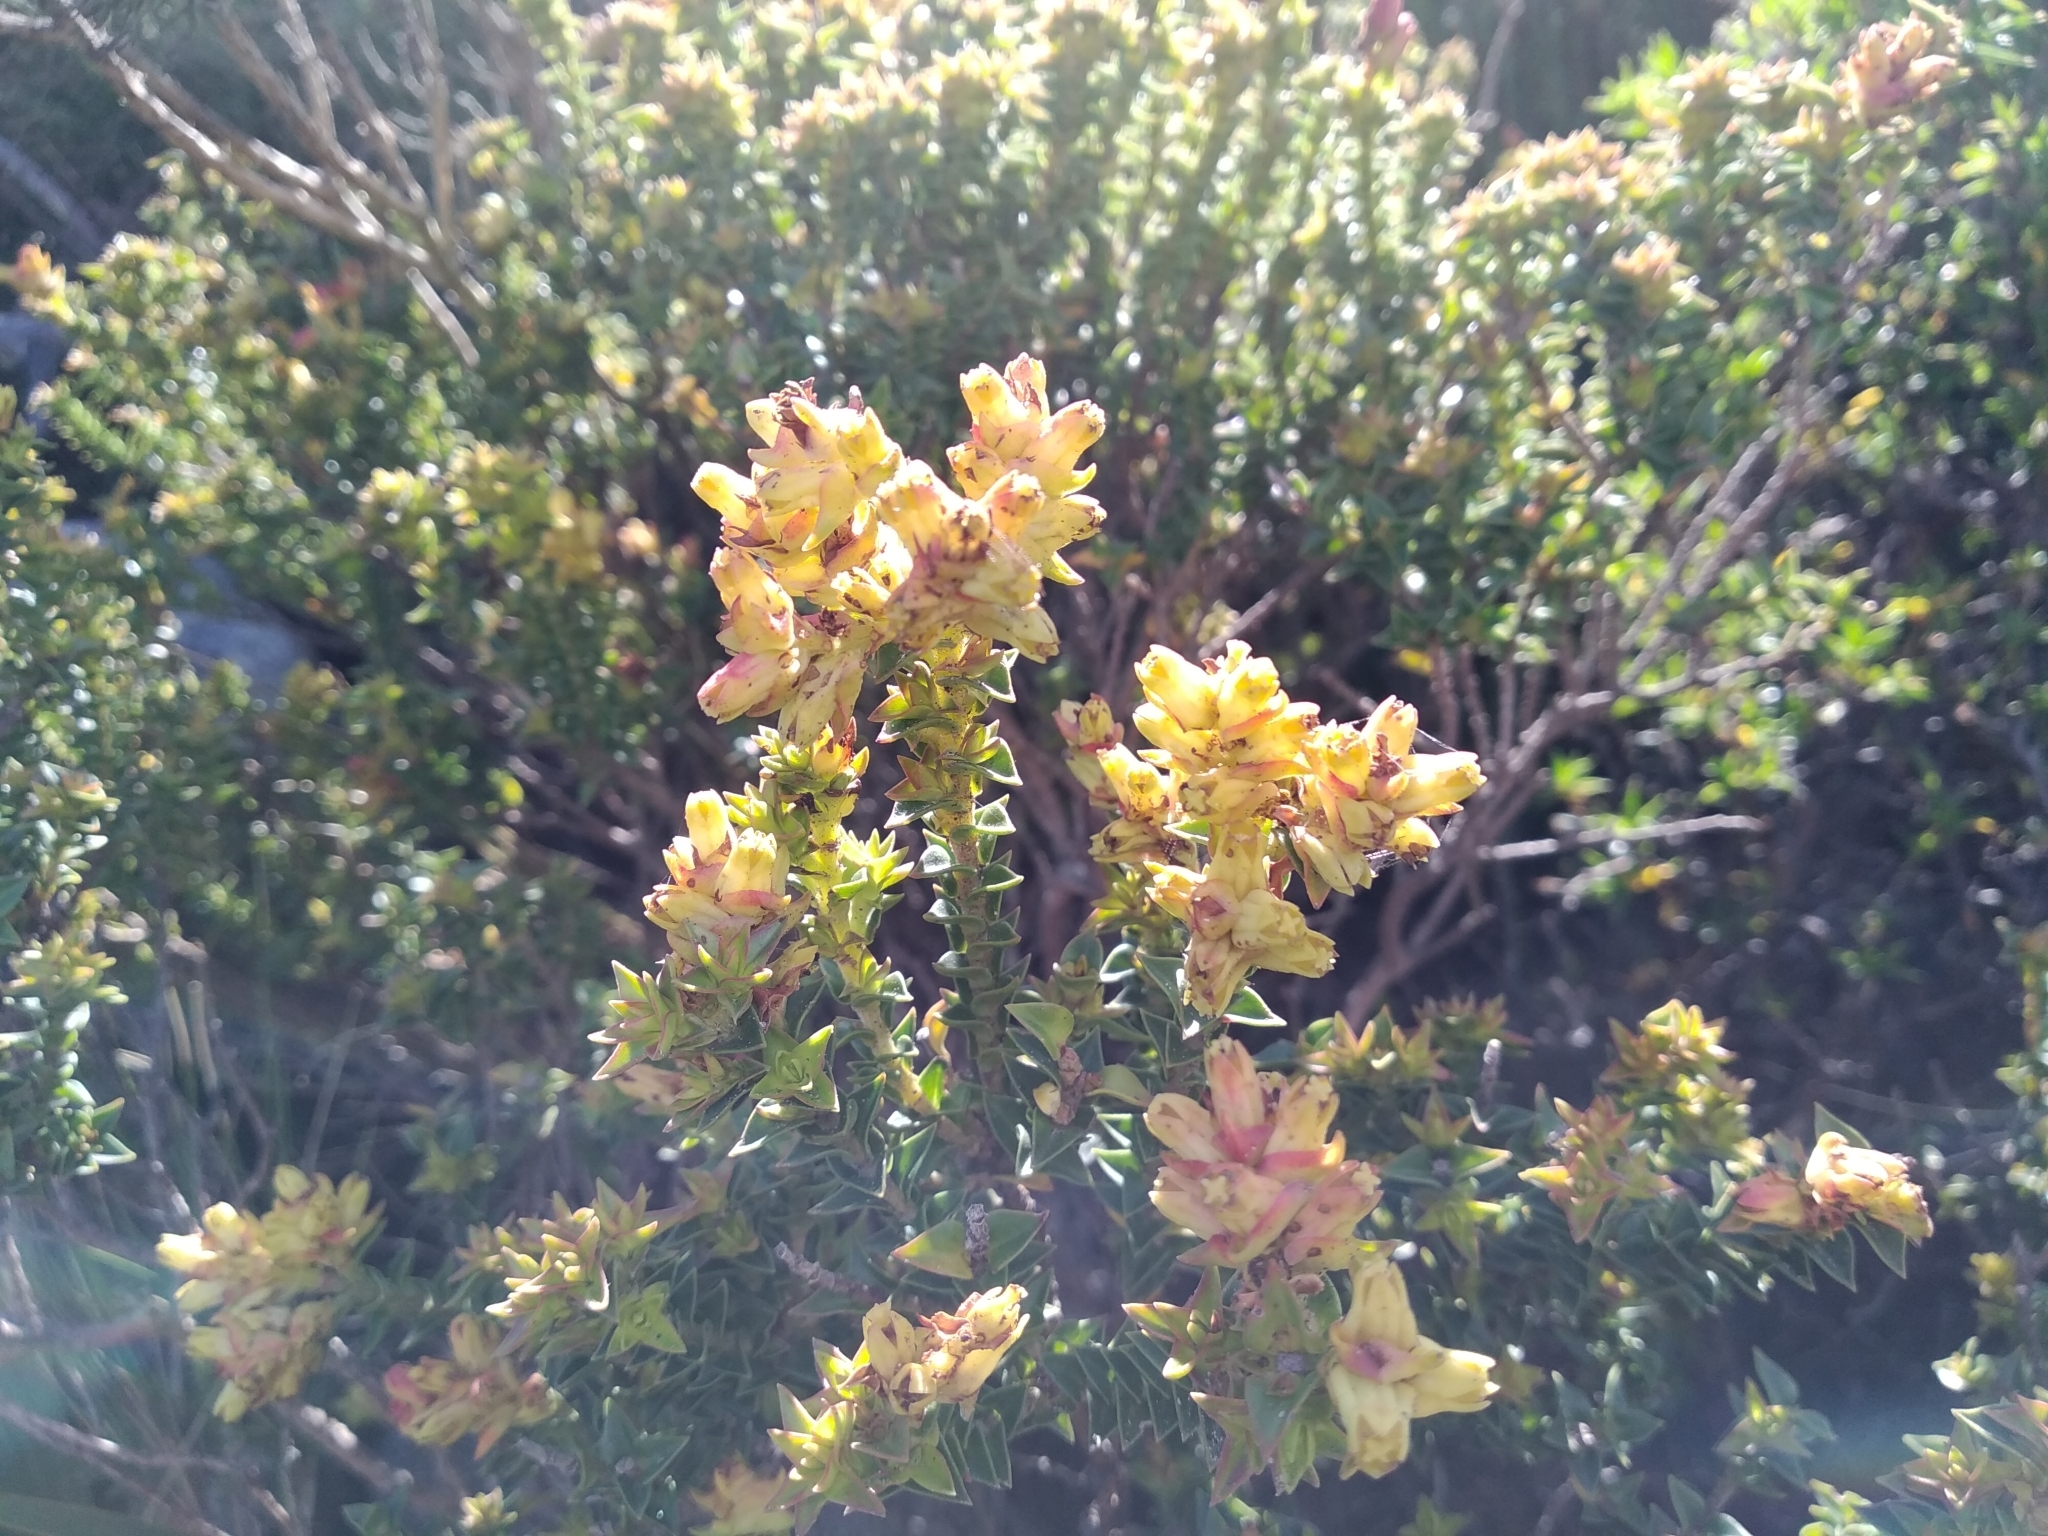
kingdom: Plantae
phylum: Tracheophyta
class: Magnoliopsida
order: Myrtales
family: Penaeaceae
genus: Penaea
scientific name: Penaea mucronata
